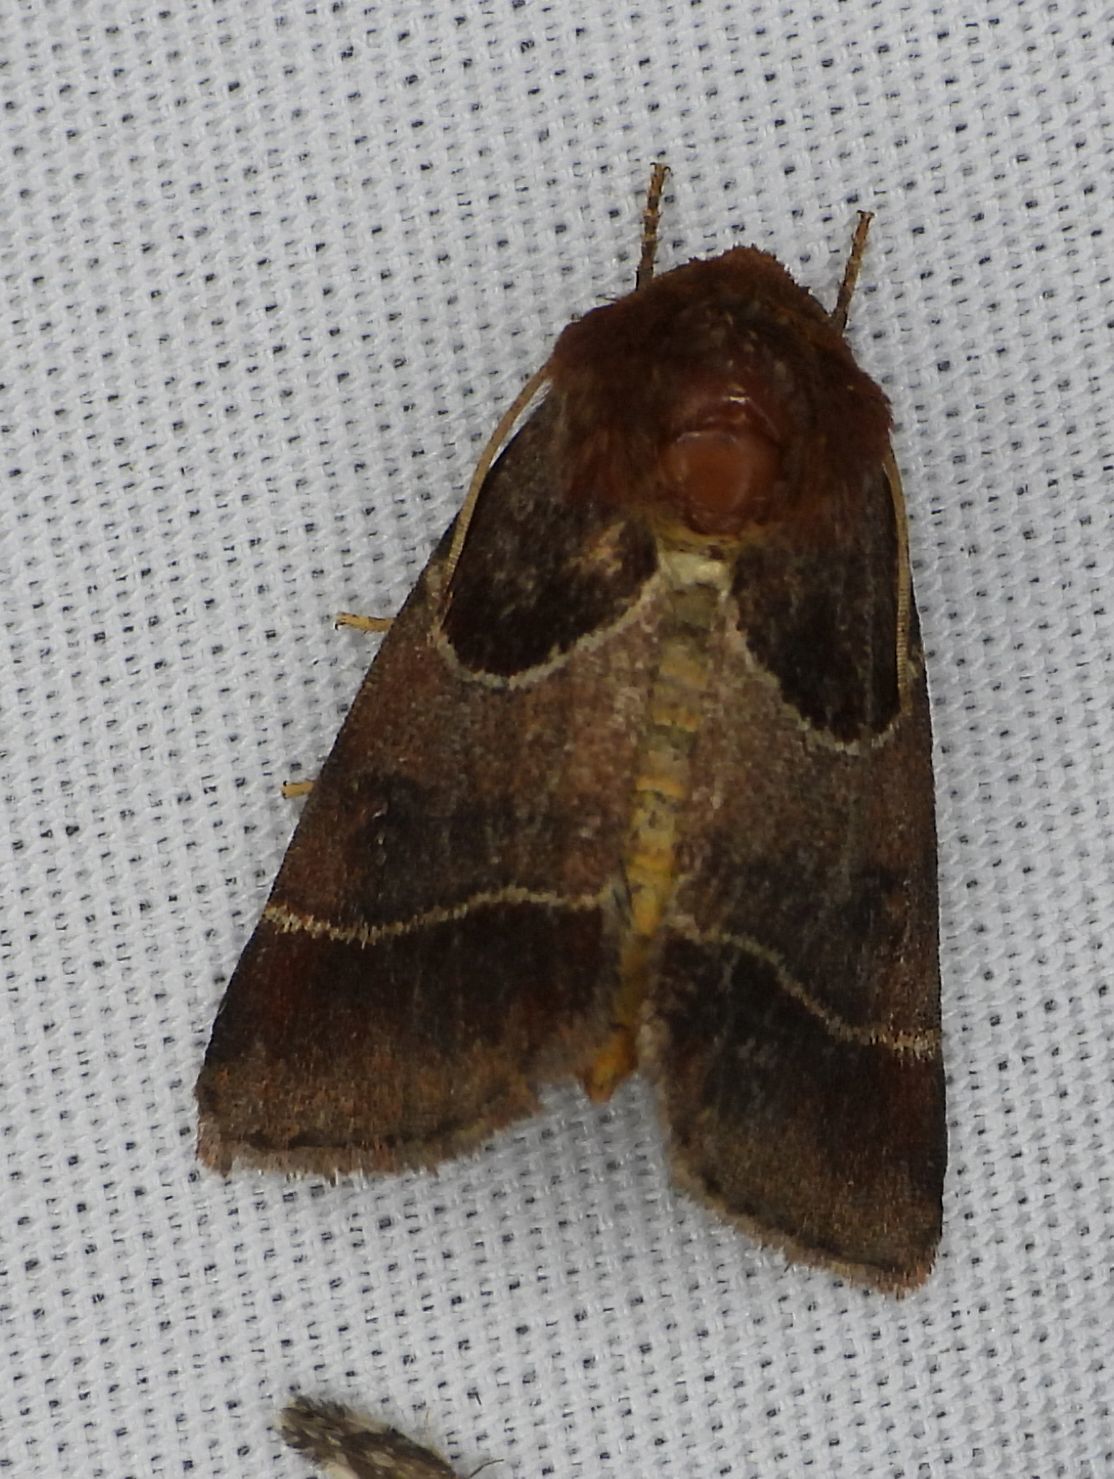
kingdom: Animalia
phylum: Arthropoda
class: Insecta
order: Lepidoptera
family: Noctuidae
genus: Schinia
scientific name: Schinia arcigera
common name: Arcigera flower moth
